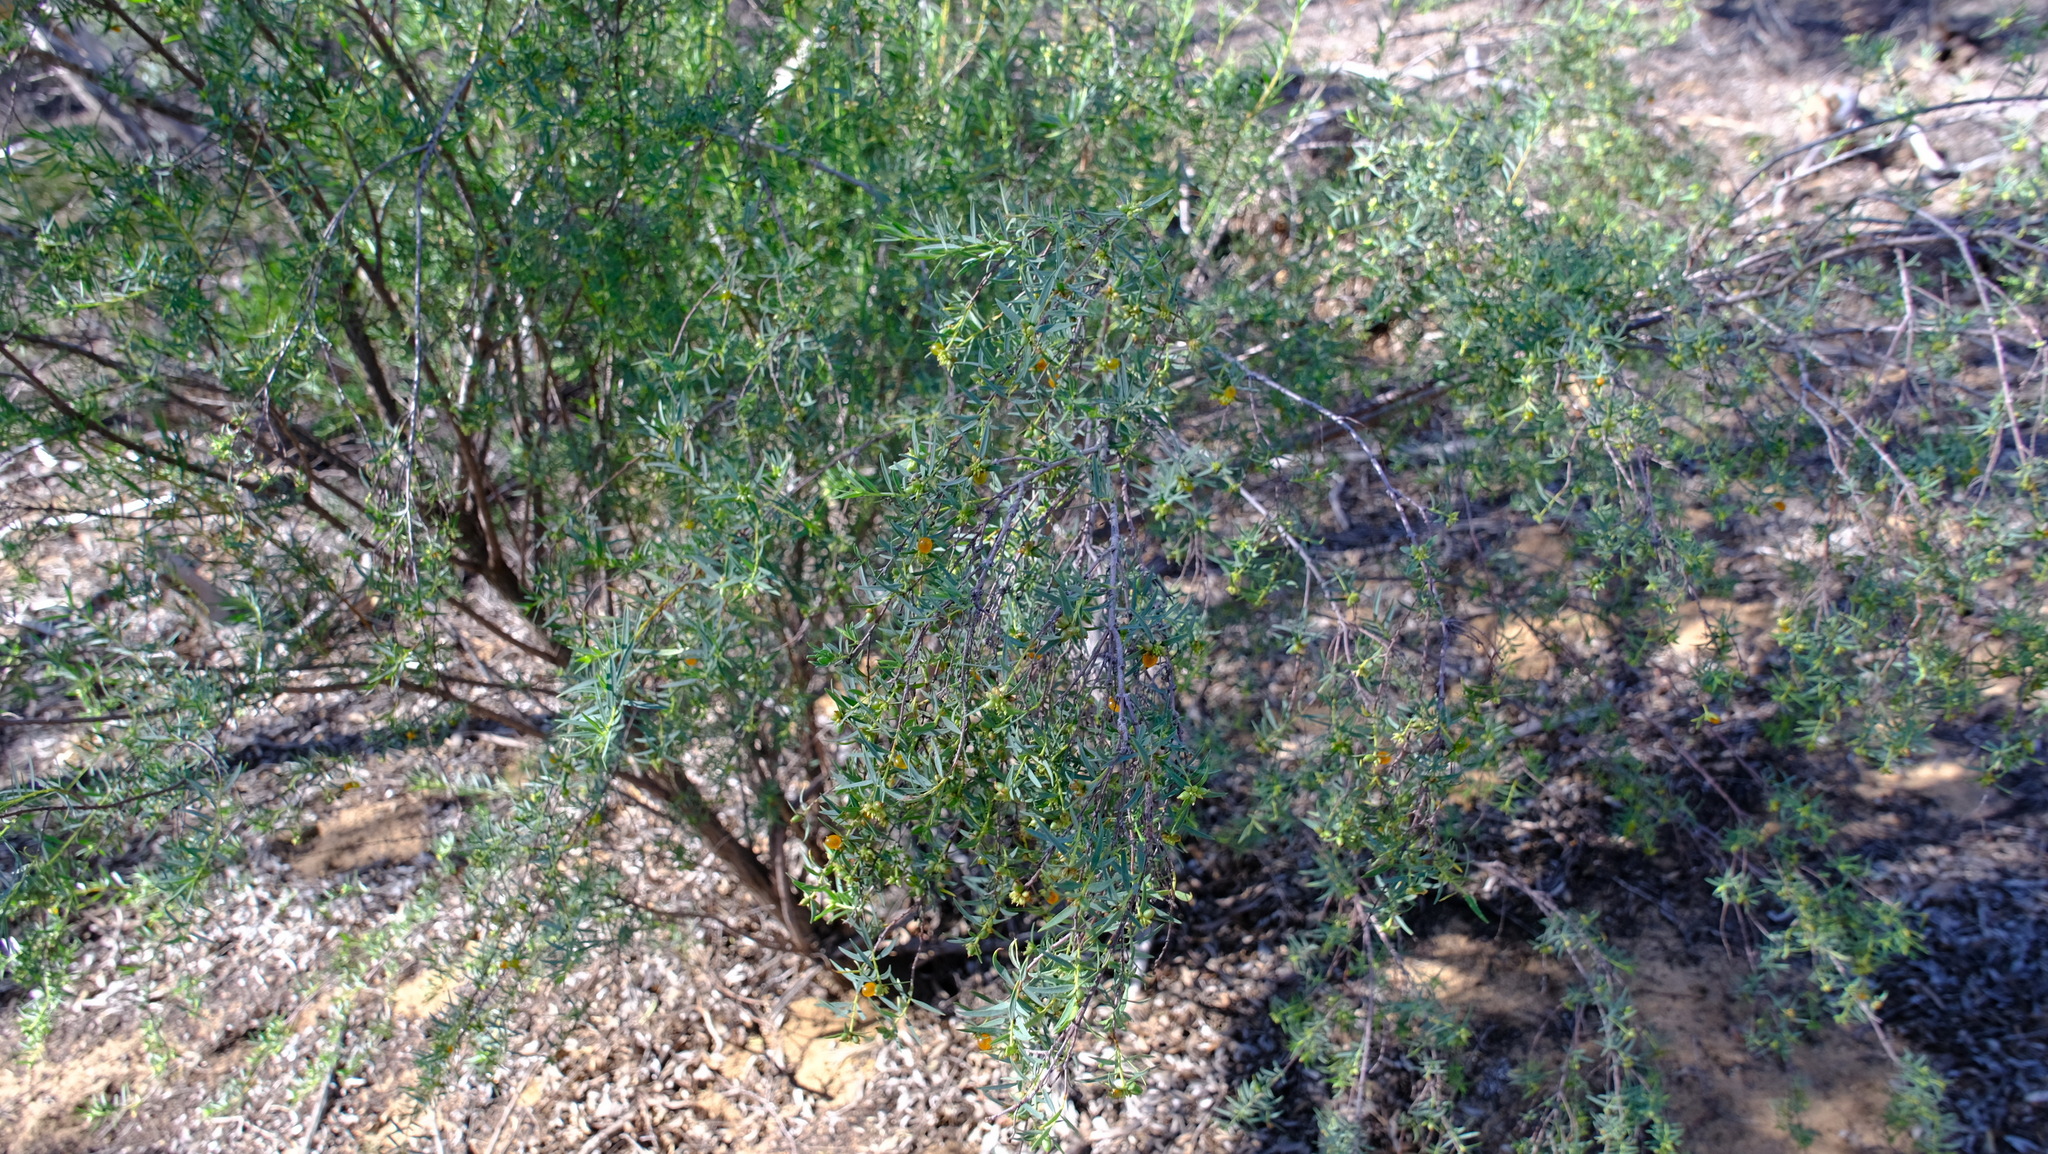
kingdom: Plantae
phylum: Tracheophyta
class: Magnoliopsida
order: Malvales
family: Thymelaeaceae
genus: Pimelea
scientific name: Pimelea microcephala
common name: Mallee riceflower
